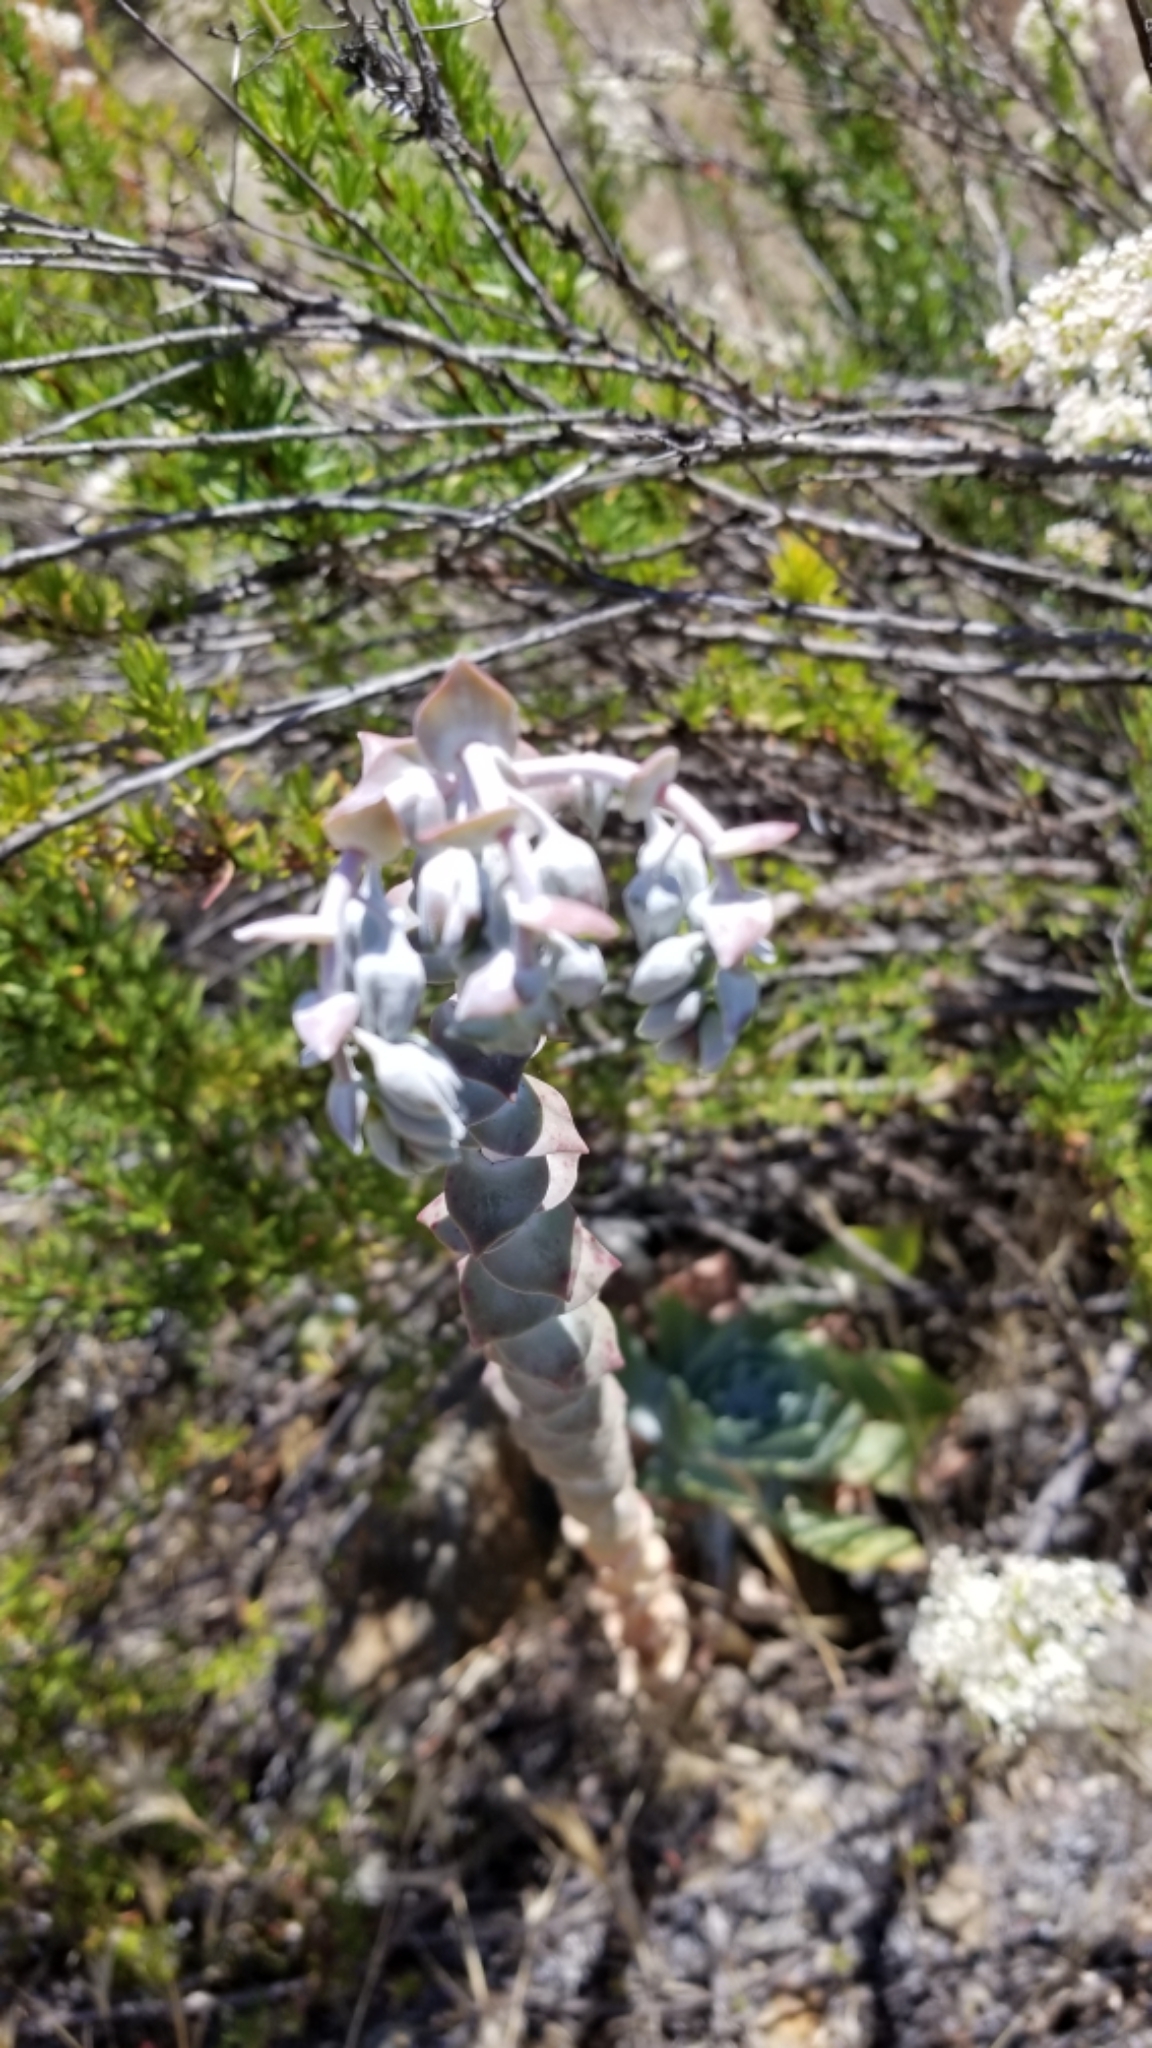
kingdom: Plantae
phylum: Tracheophyta
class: Magnoliopsida
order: Saxifragales
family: Crassulaceae
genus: Dudleya
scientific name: Dudleya pulverulenta
